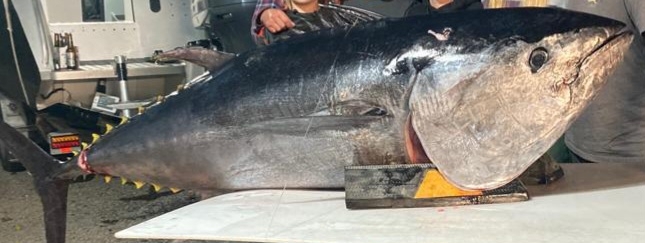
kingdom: Animalia
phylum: Chordata
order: Perciformes
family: Scombridae
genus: Thunnus
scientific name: Thunnus orientalis
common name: Pacific bluefin tuna
